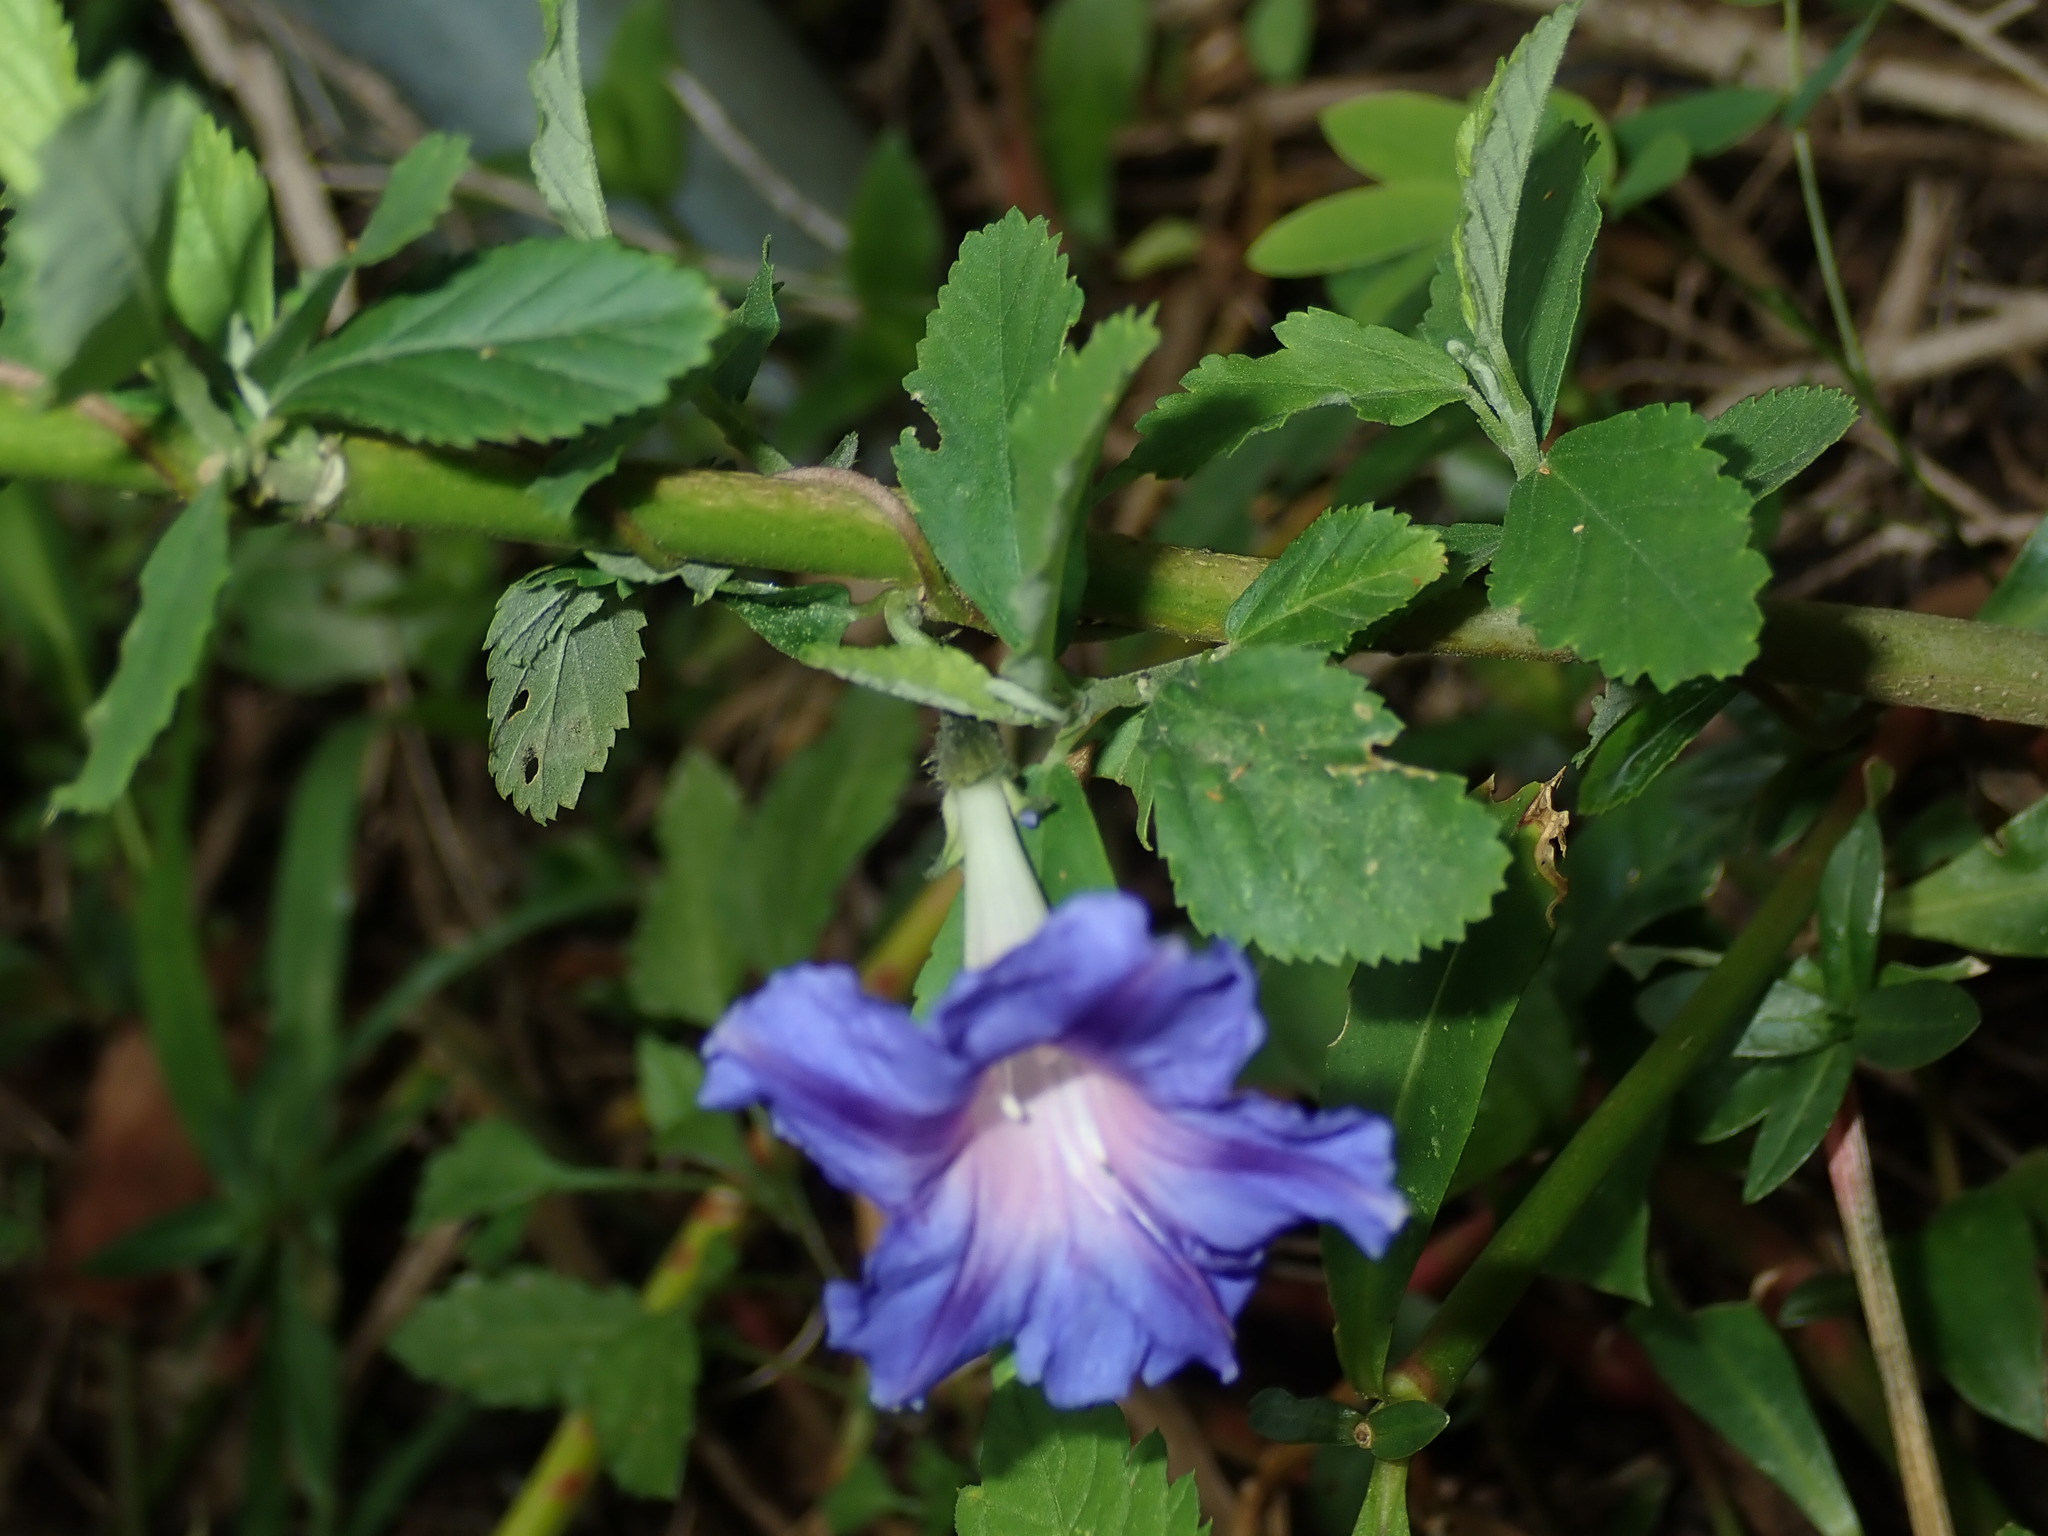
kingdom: Plantae
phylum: Tracheophyta
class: Magnoliopsida
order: Solanales
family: Convolvulaceae
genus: Ipomoea
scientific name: Ipomoea indica
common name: Blue dawnflower
